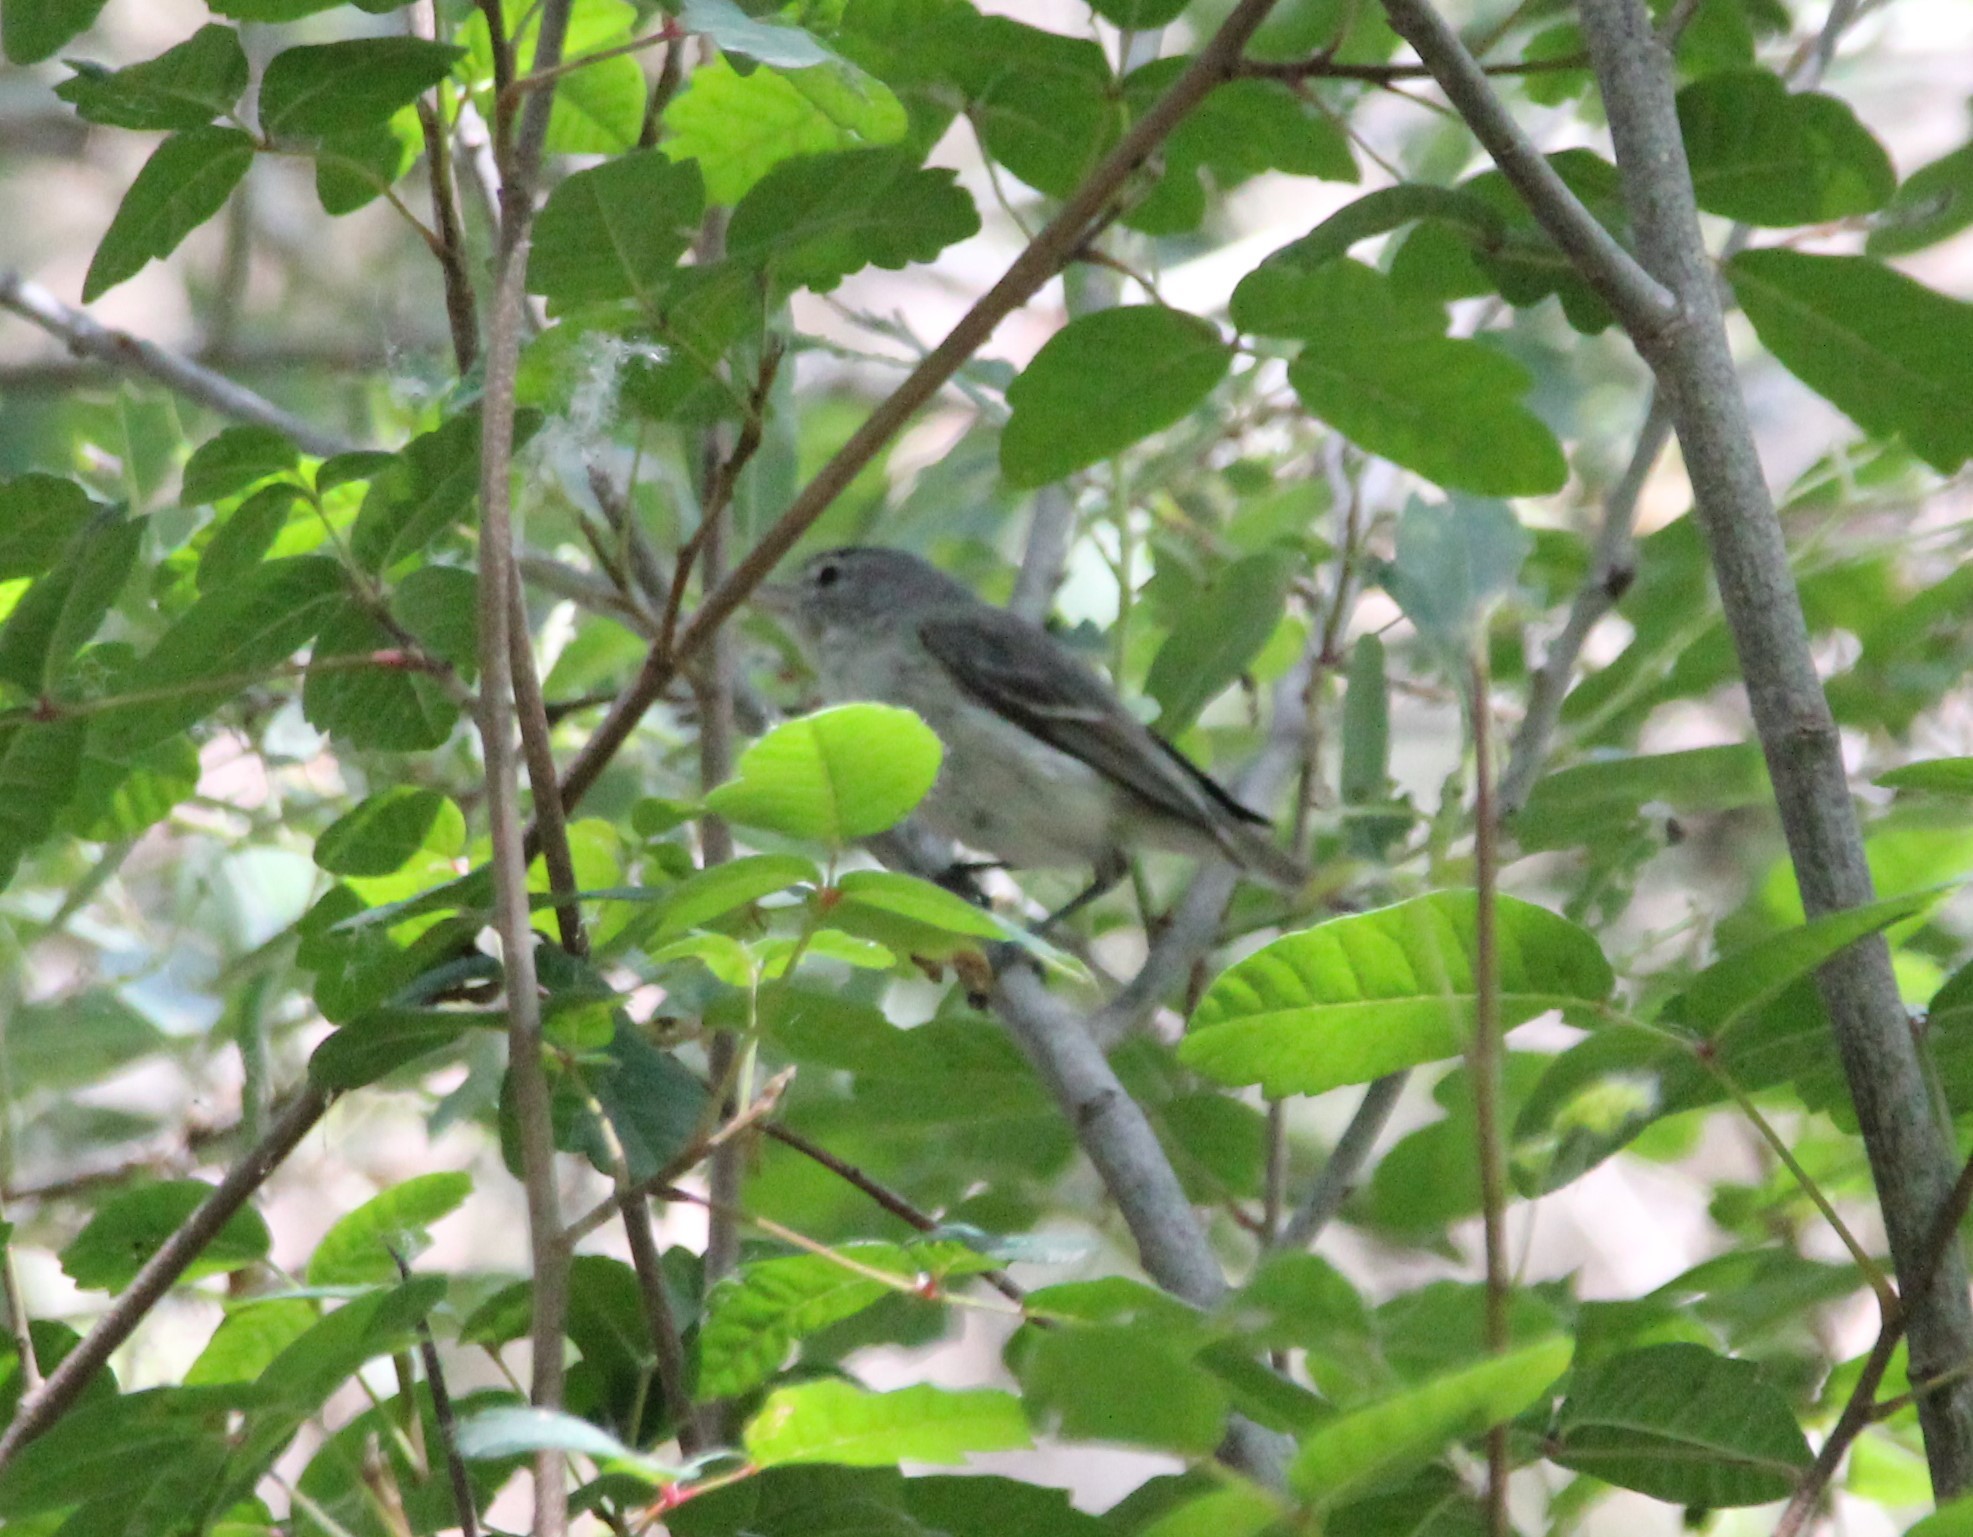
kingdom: Animalia
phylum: Chordata
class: Aves
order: Passeriformes
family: Vireonidae
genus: Vireo
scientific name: Vireo bellii
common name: Bell's vireo
